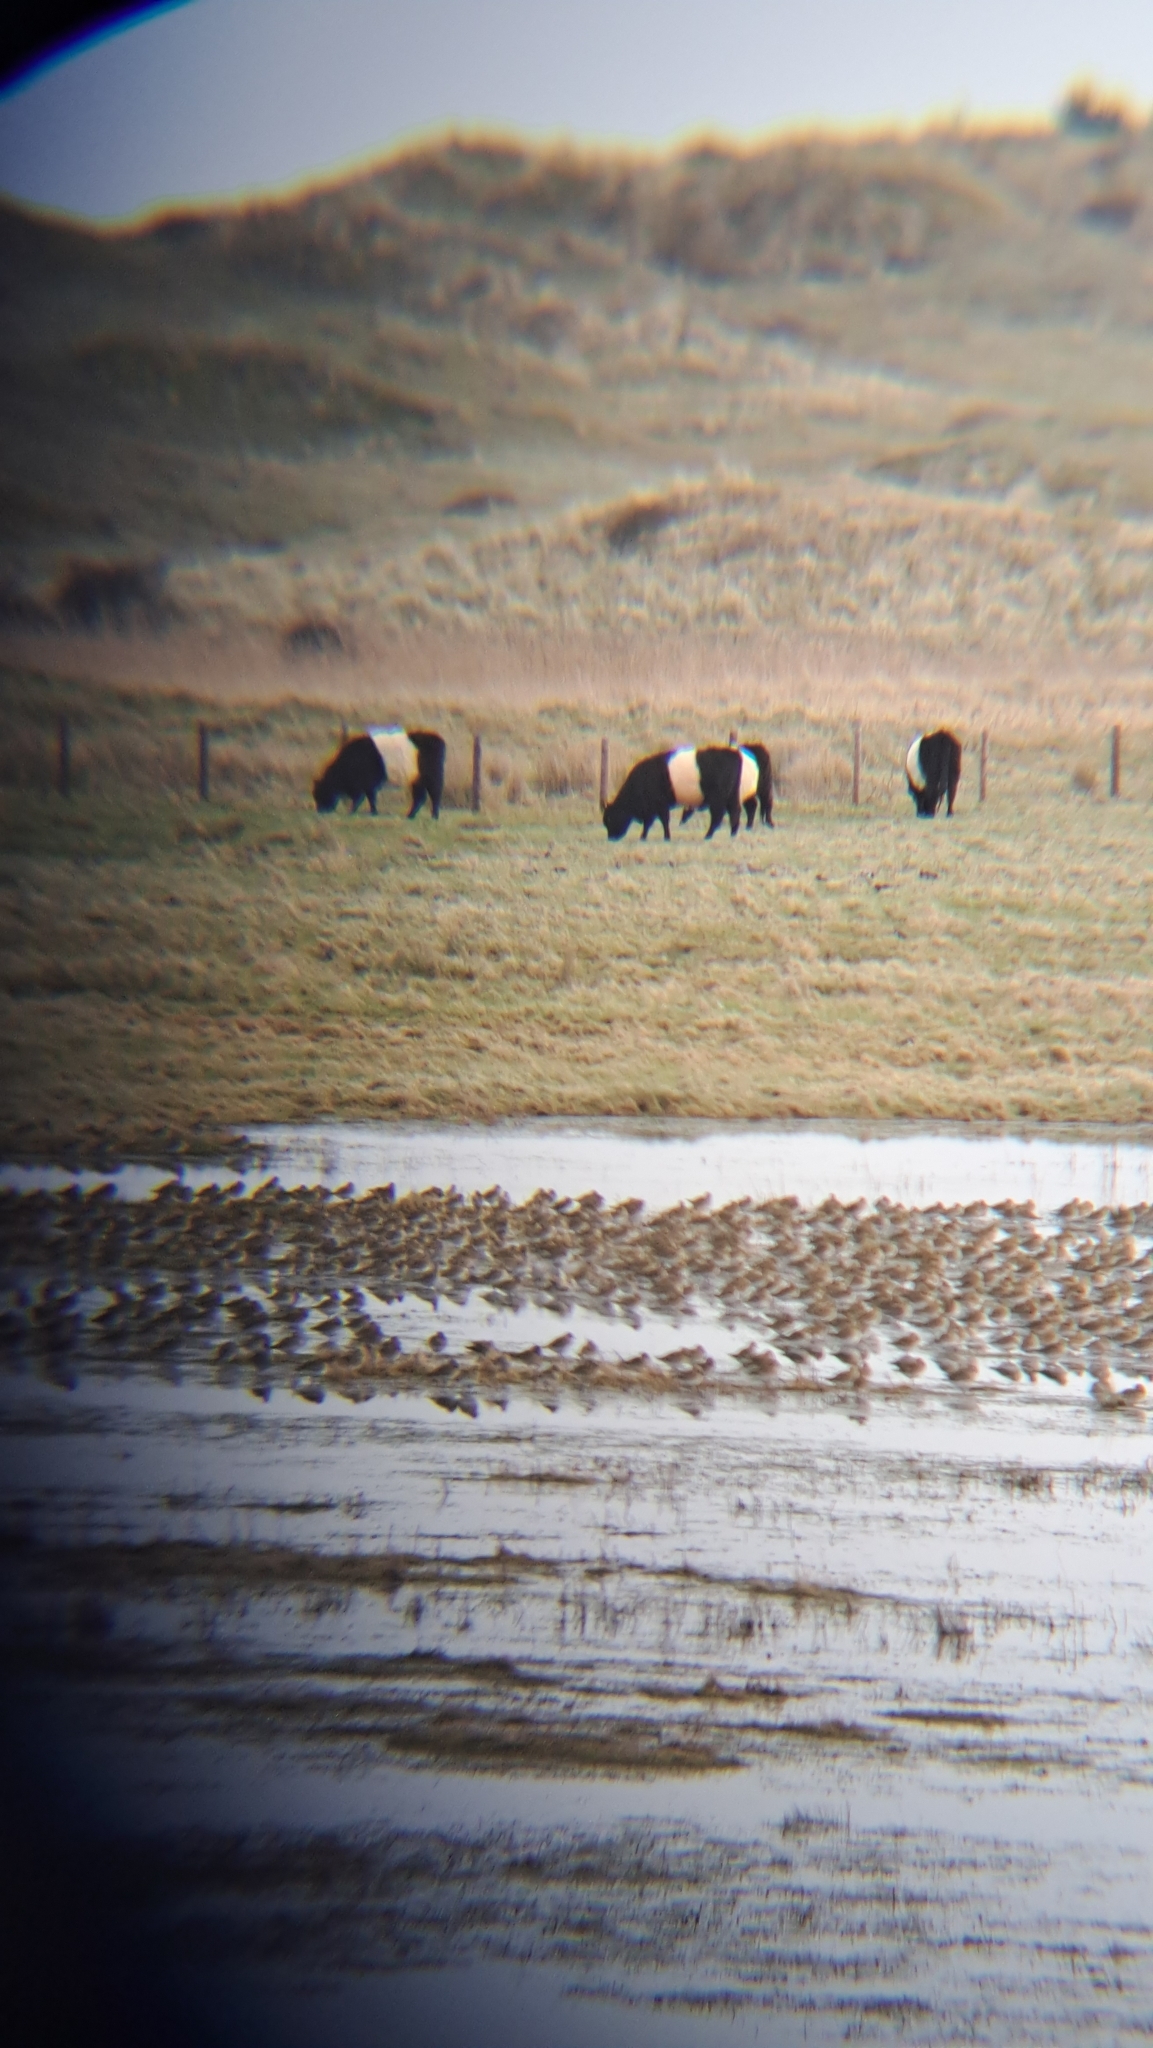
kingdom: Animalia
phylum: Chordata
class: Aves
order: Charadriiformes
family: Charadriidae
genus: Pluvialis
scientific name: Pluvialis apricaria
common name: European golden plover
